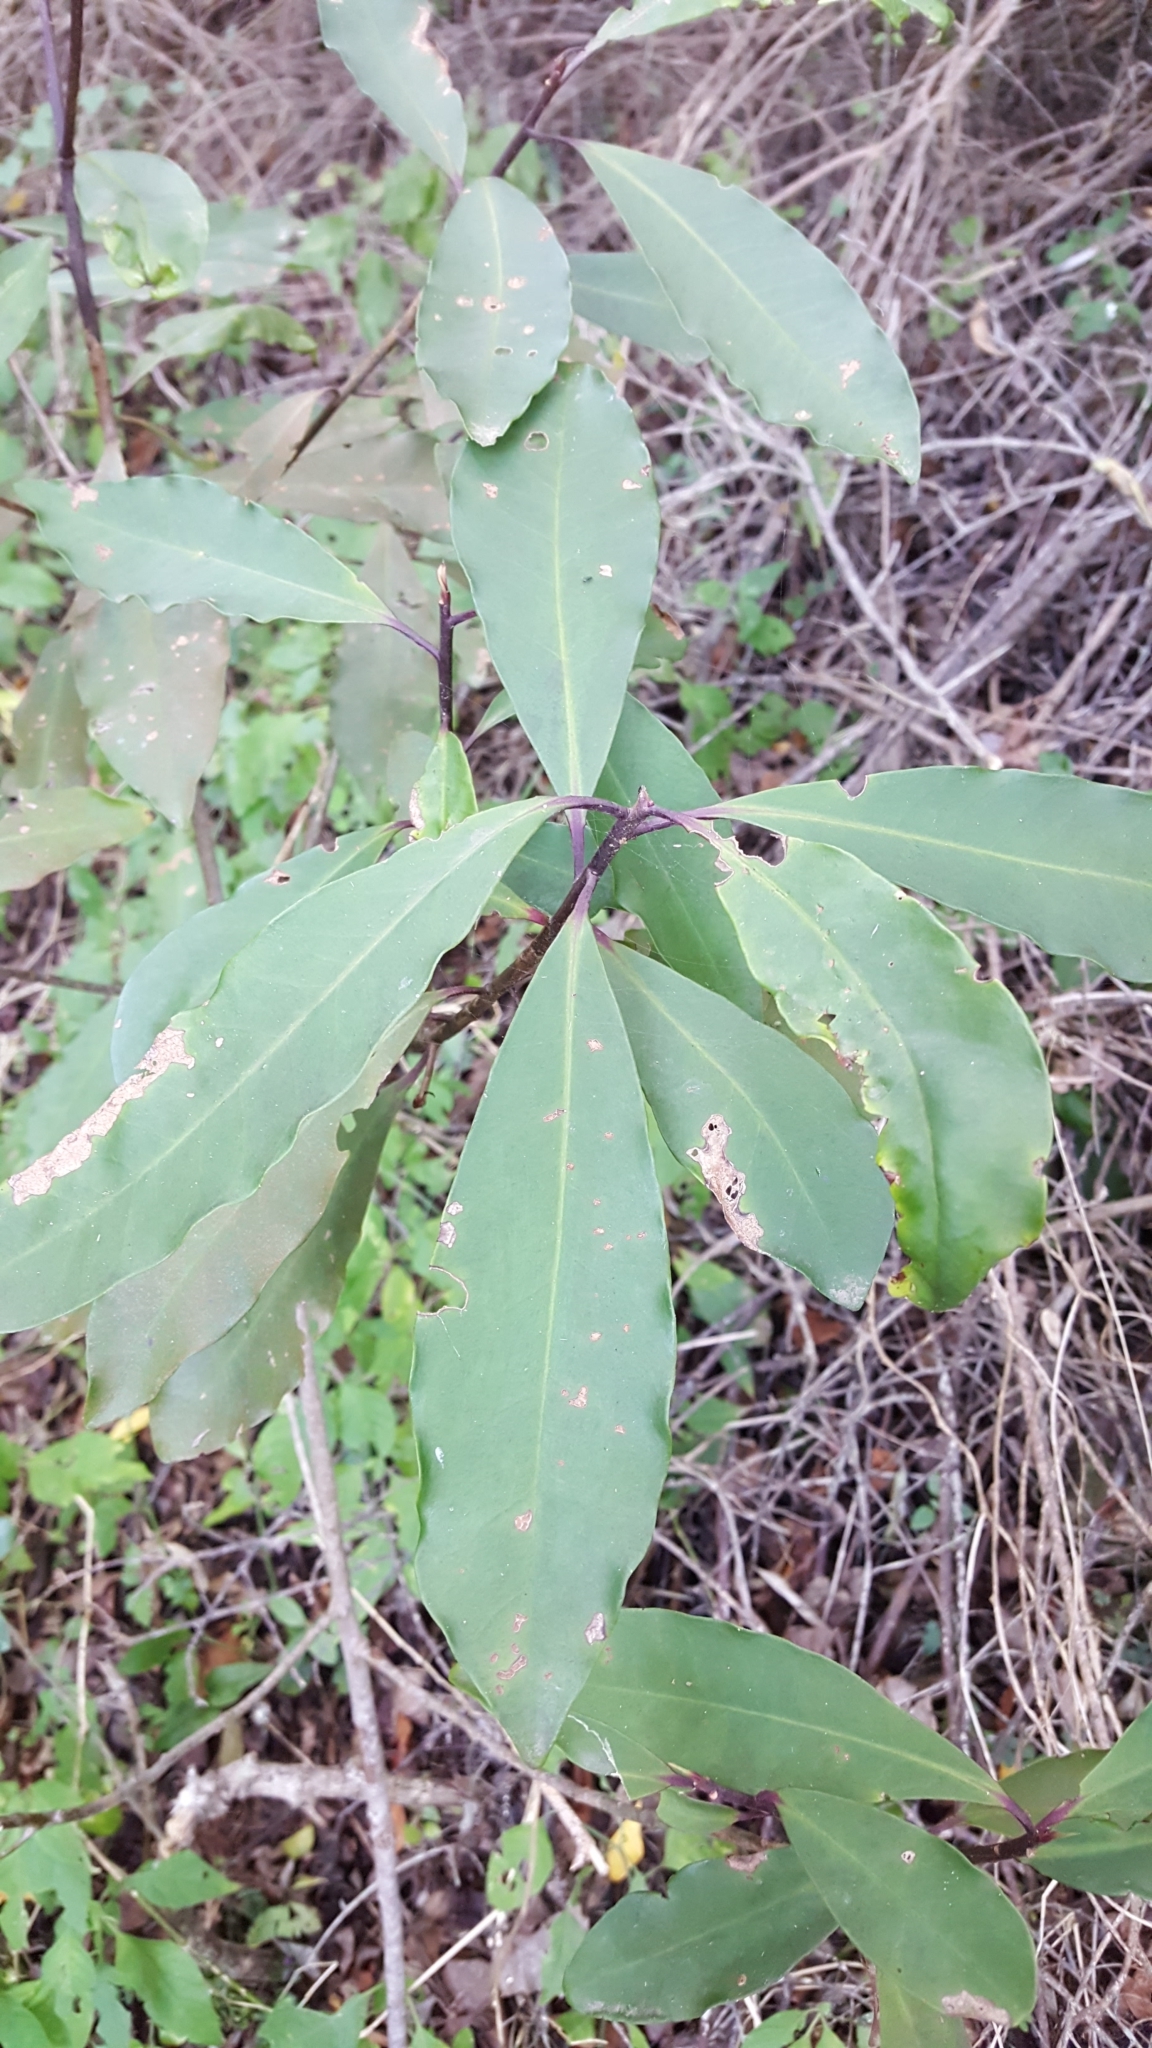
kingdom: Plantae
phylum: Tracheophyta
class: Magnoliopsida
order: Ericales
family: Primulaceae
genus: Myrsine
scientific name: Myrsine melanophloeos
